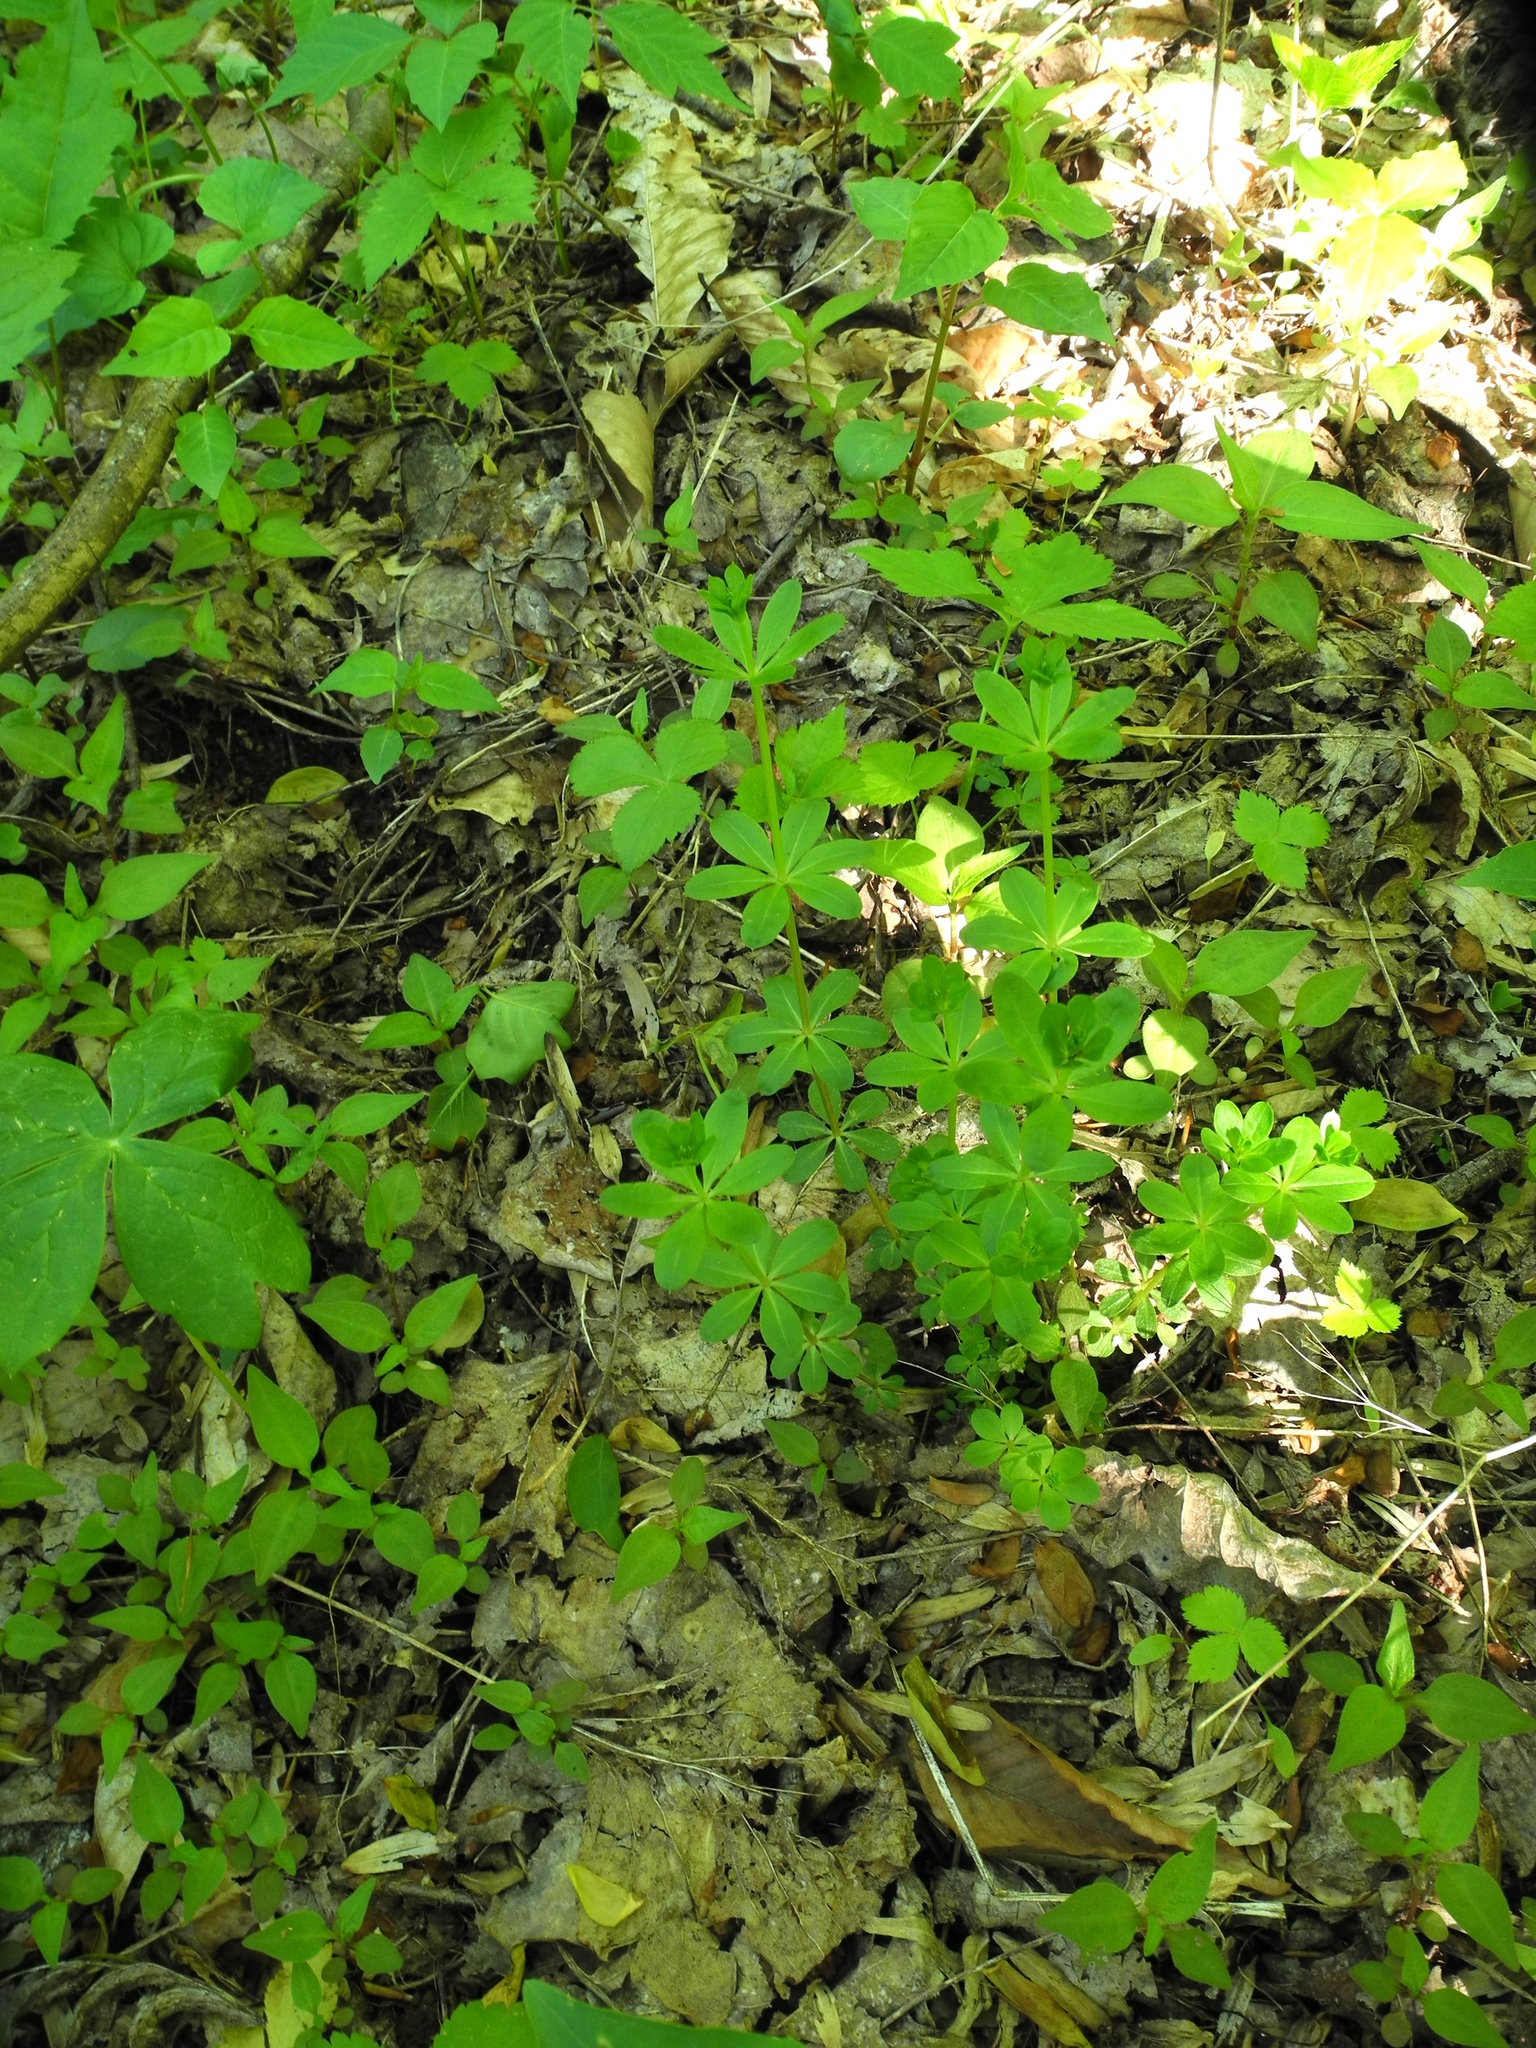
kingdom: Plantae
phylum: Tracheophyta
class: Magnoliopsida
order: Gentianales
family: Rubiaceae
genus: Galium
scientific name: Galium triflorum
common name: Fragrant bedstraw
